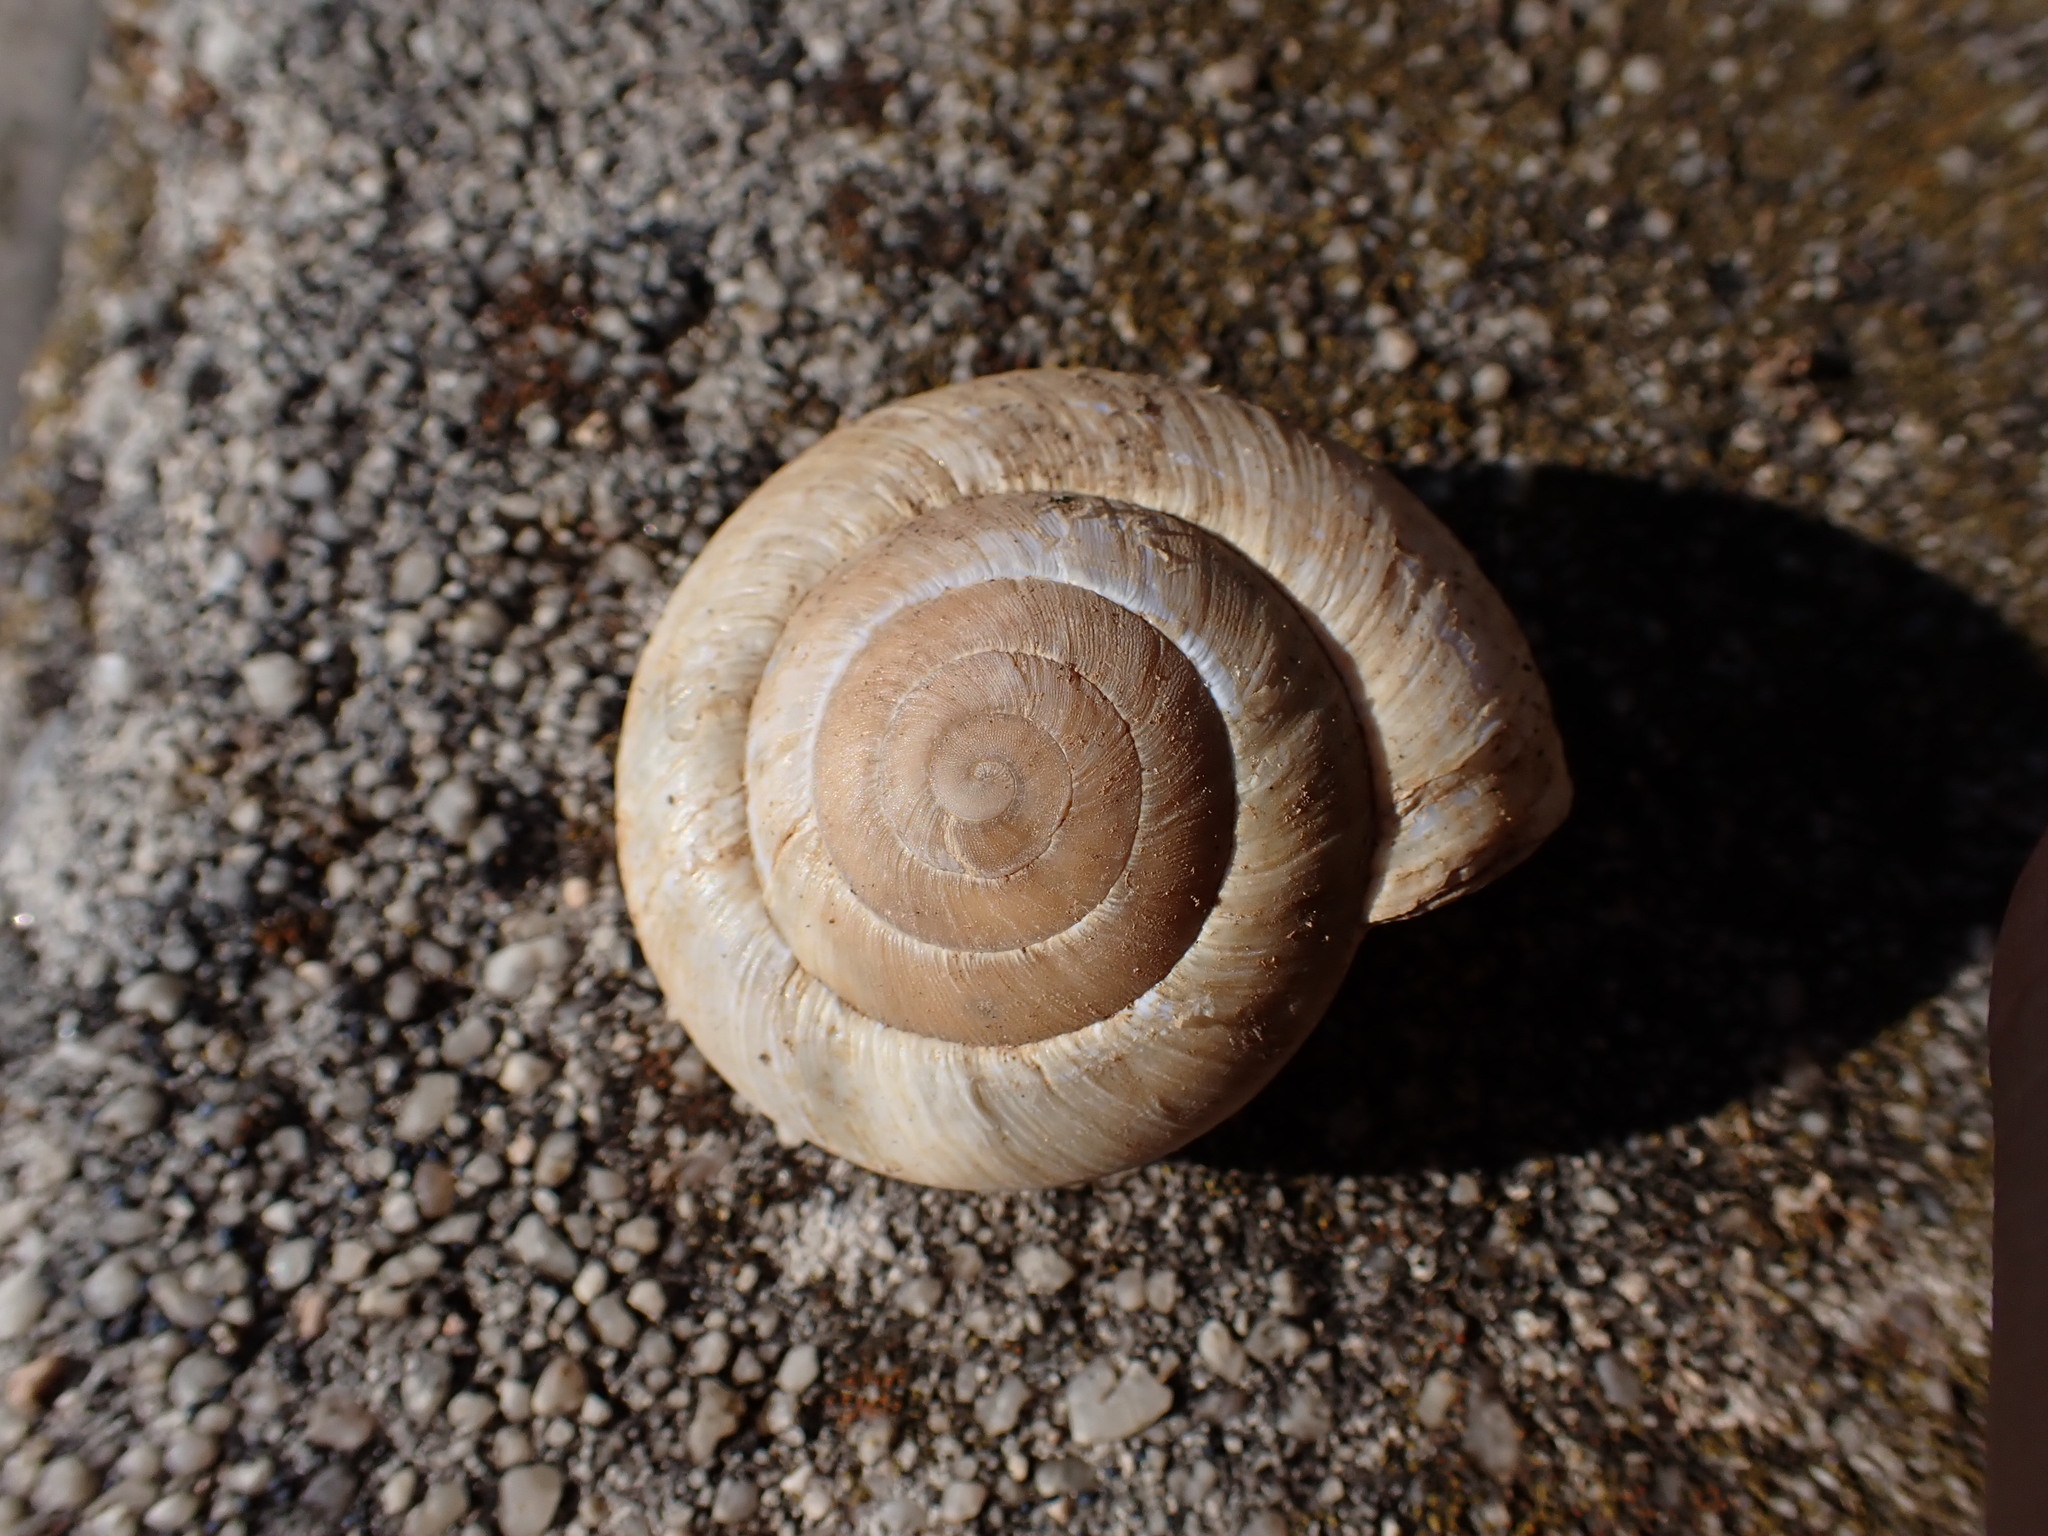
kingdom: Animalia
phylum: Mollusca
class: Gastropoda
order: Stylommatophora
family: Zonitidae
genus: Zonites
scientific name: Zonites algirus
